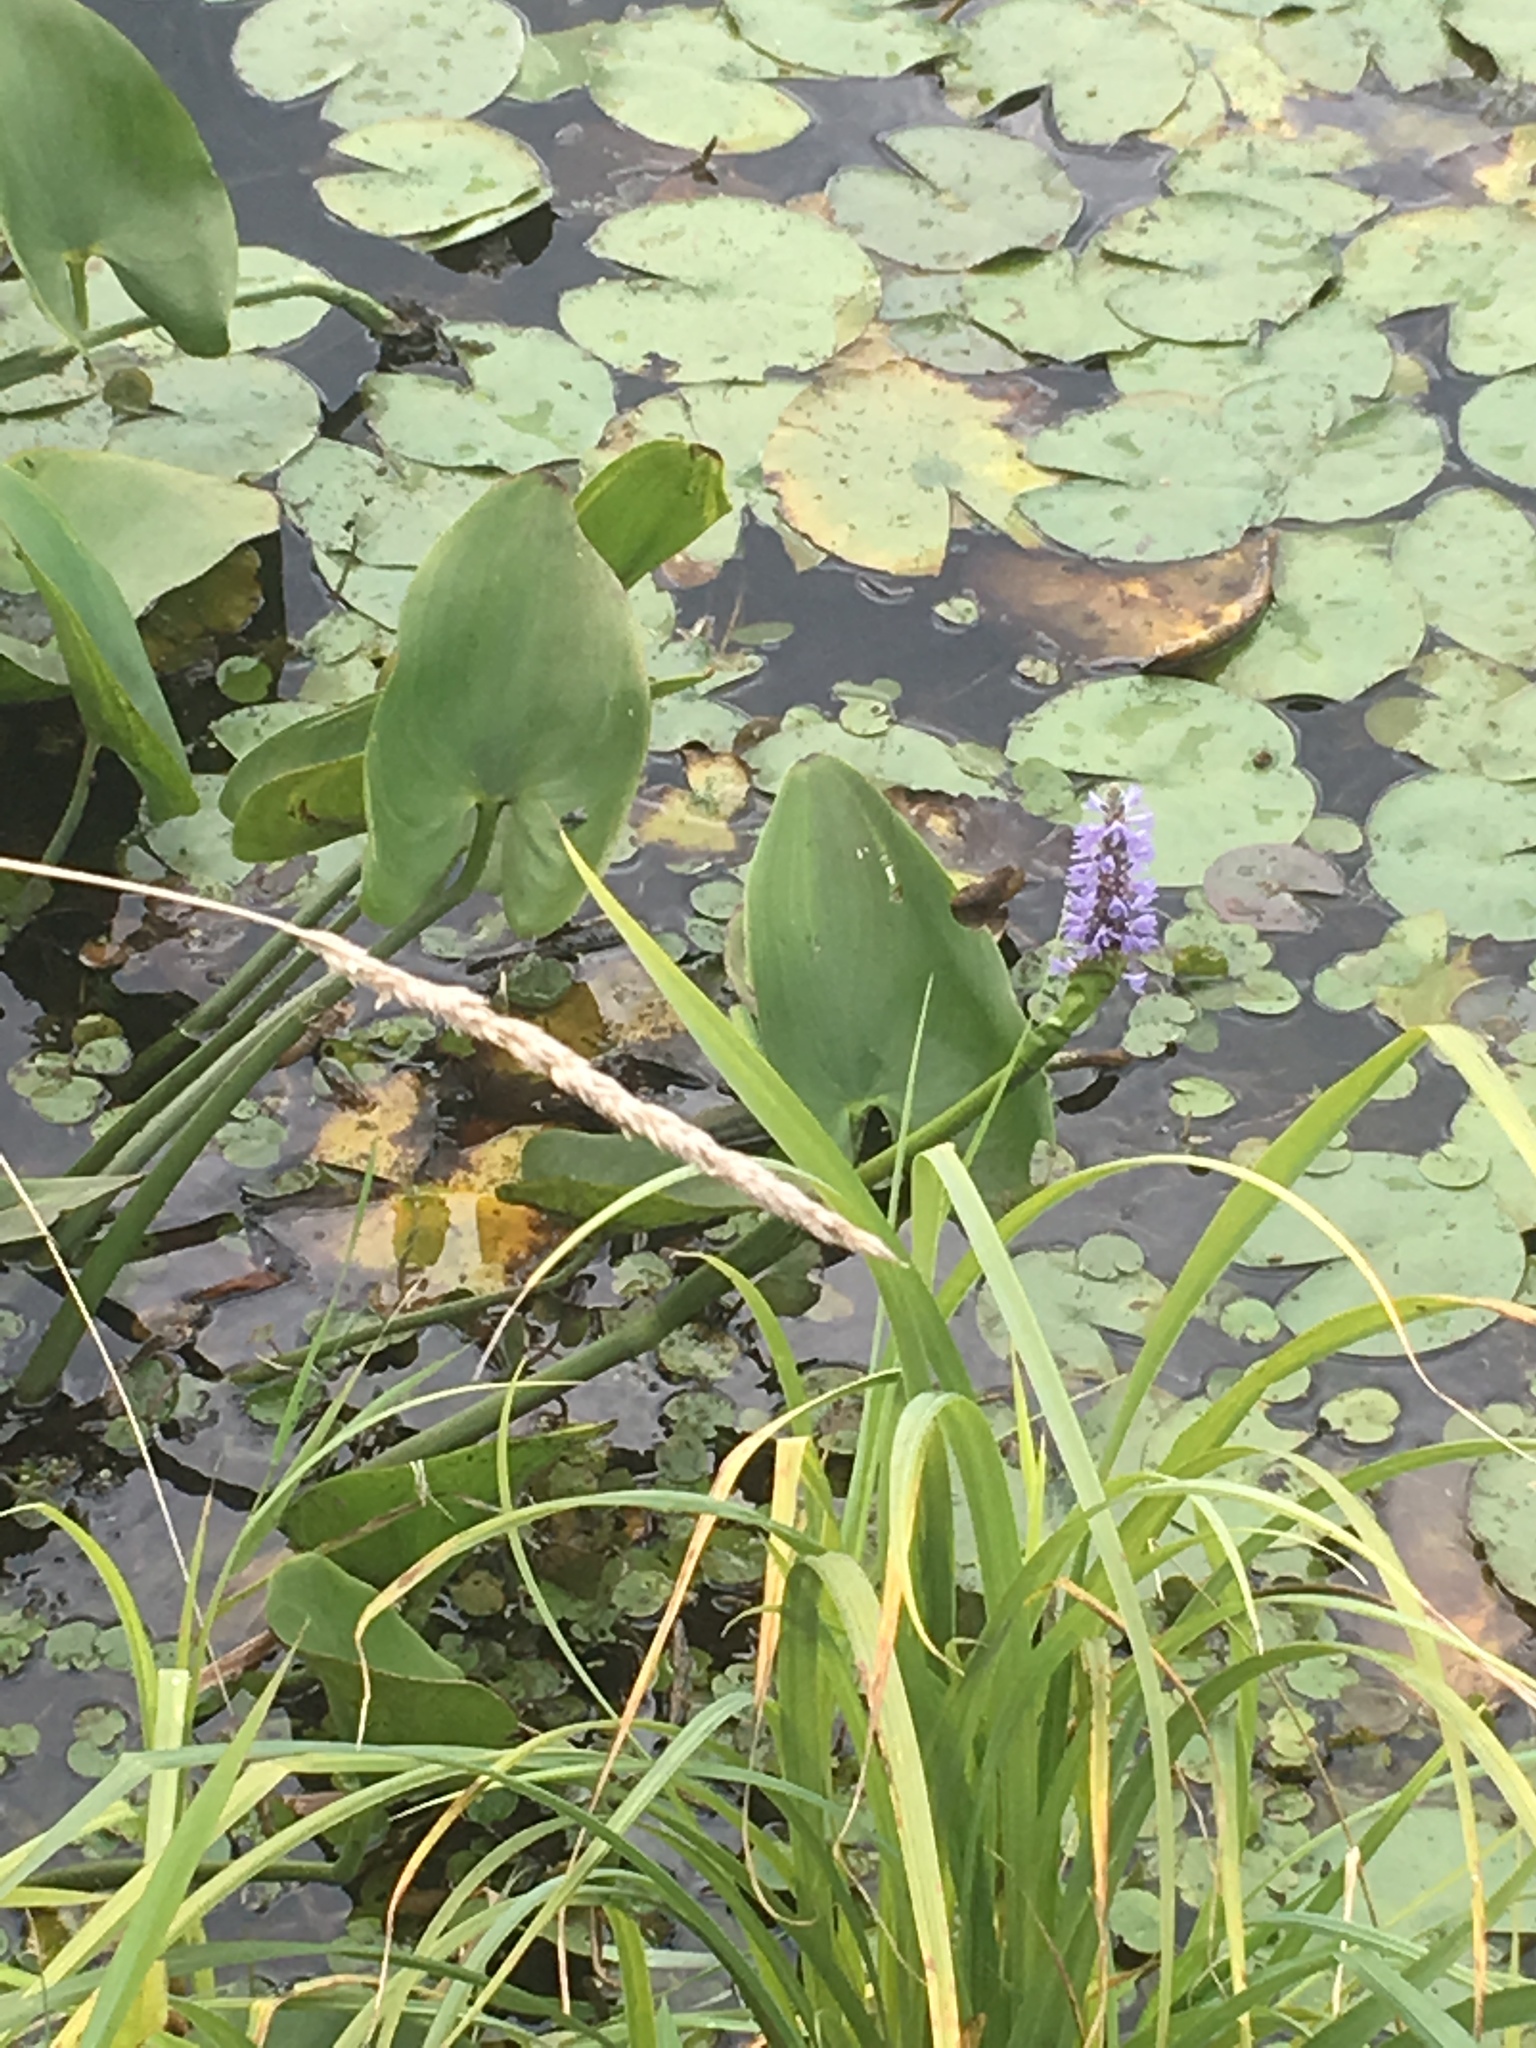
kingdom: Plantae
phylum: Tracheophyta
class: Liliopsida
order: Commelinales
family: Pontederiaceae
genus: Pontederia
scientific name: Pontederia cordata
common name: Pickerelweed
